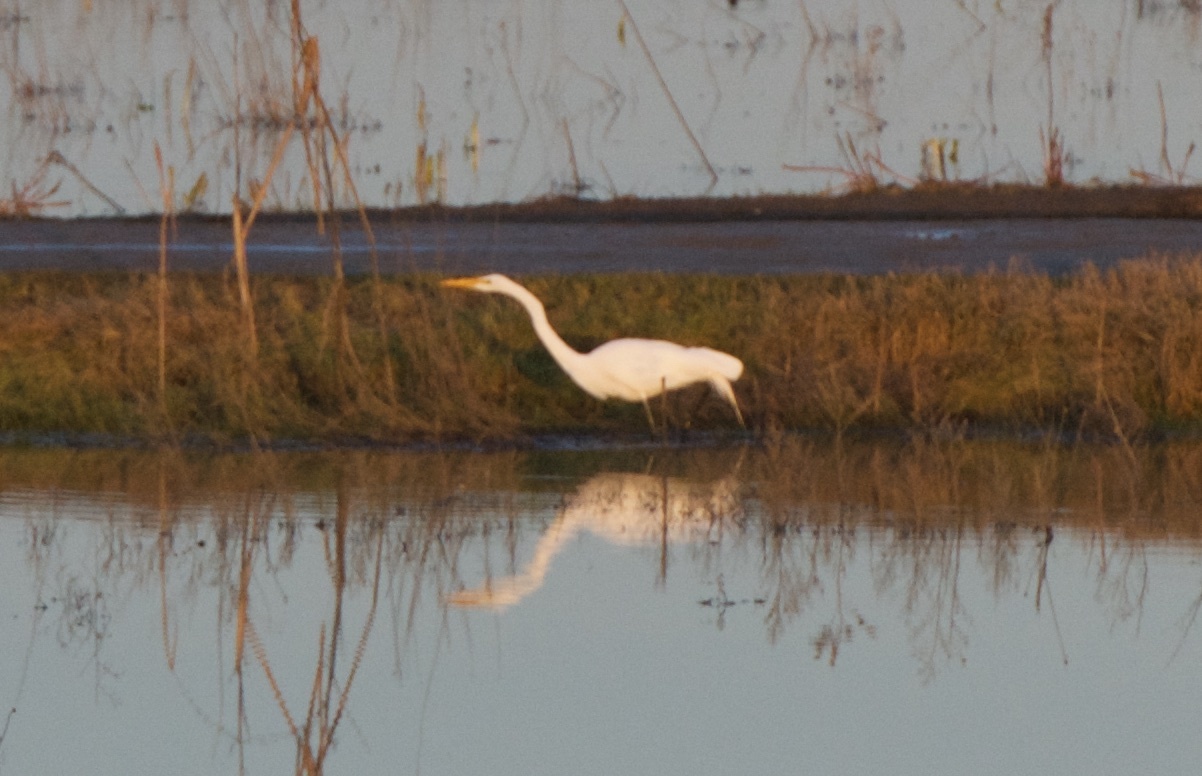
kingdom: Animalia
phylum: Chordata
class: Aves
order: Pelecaniformes
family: Ardeidae
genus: Ardea
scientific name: Ardea alba
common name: Great egret
